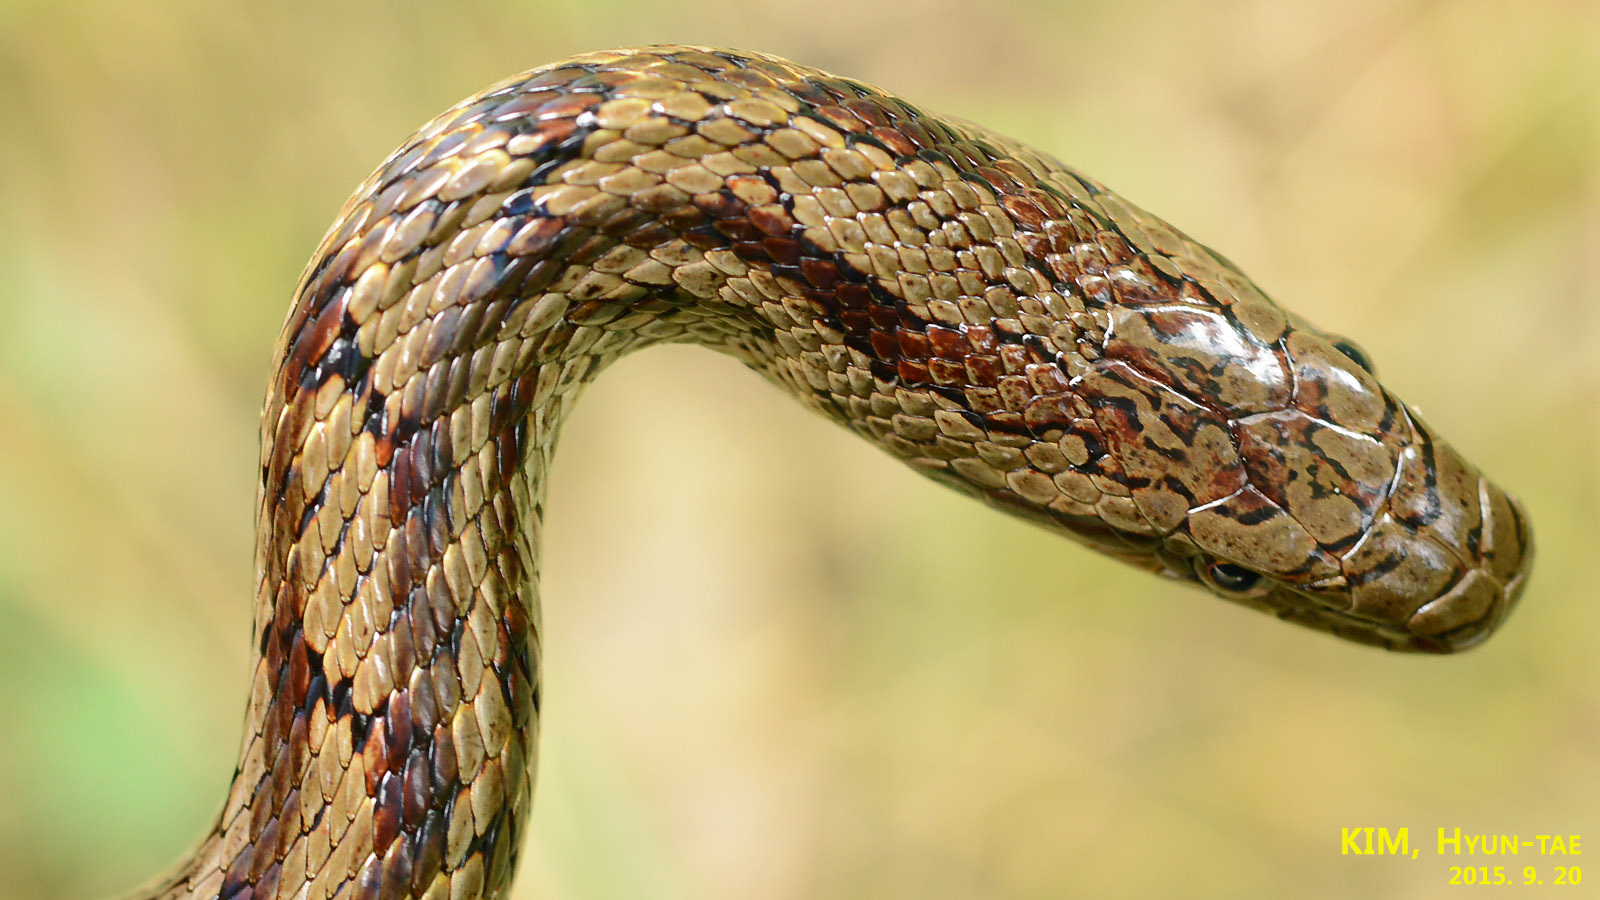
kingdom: Animalia
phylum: Chordata
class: Squamata
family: Colubridae
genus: Elaphe
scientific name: Elaphe dione
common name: Dione ratsnake
